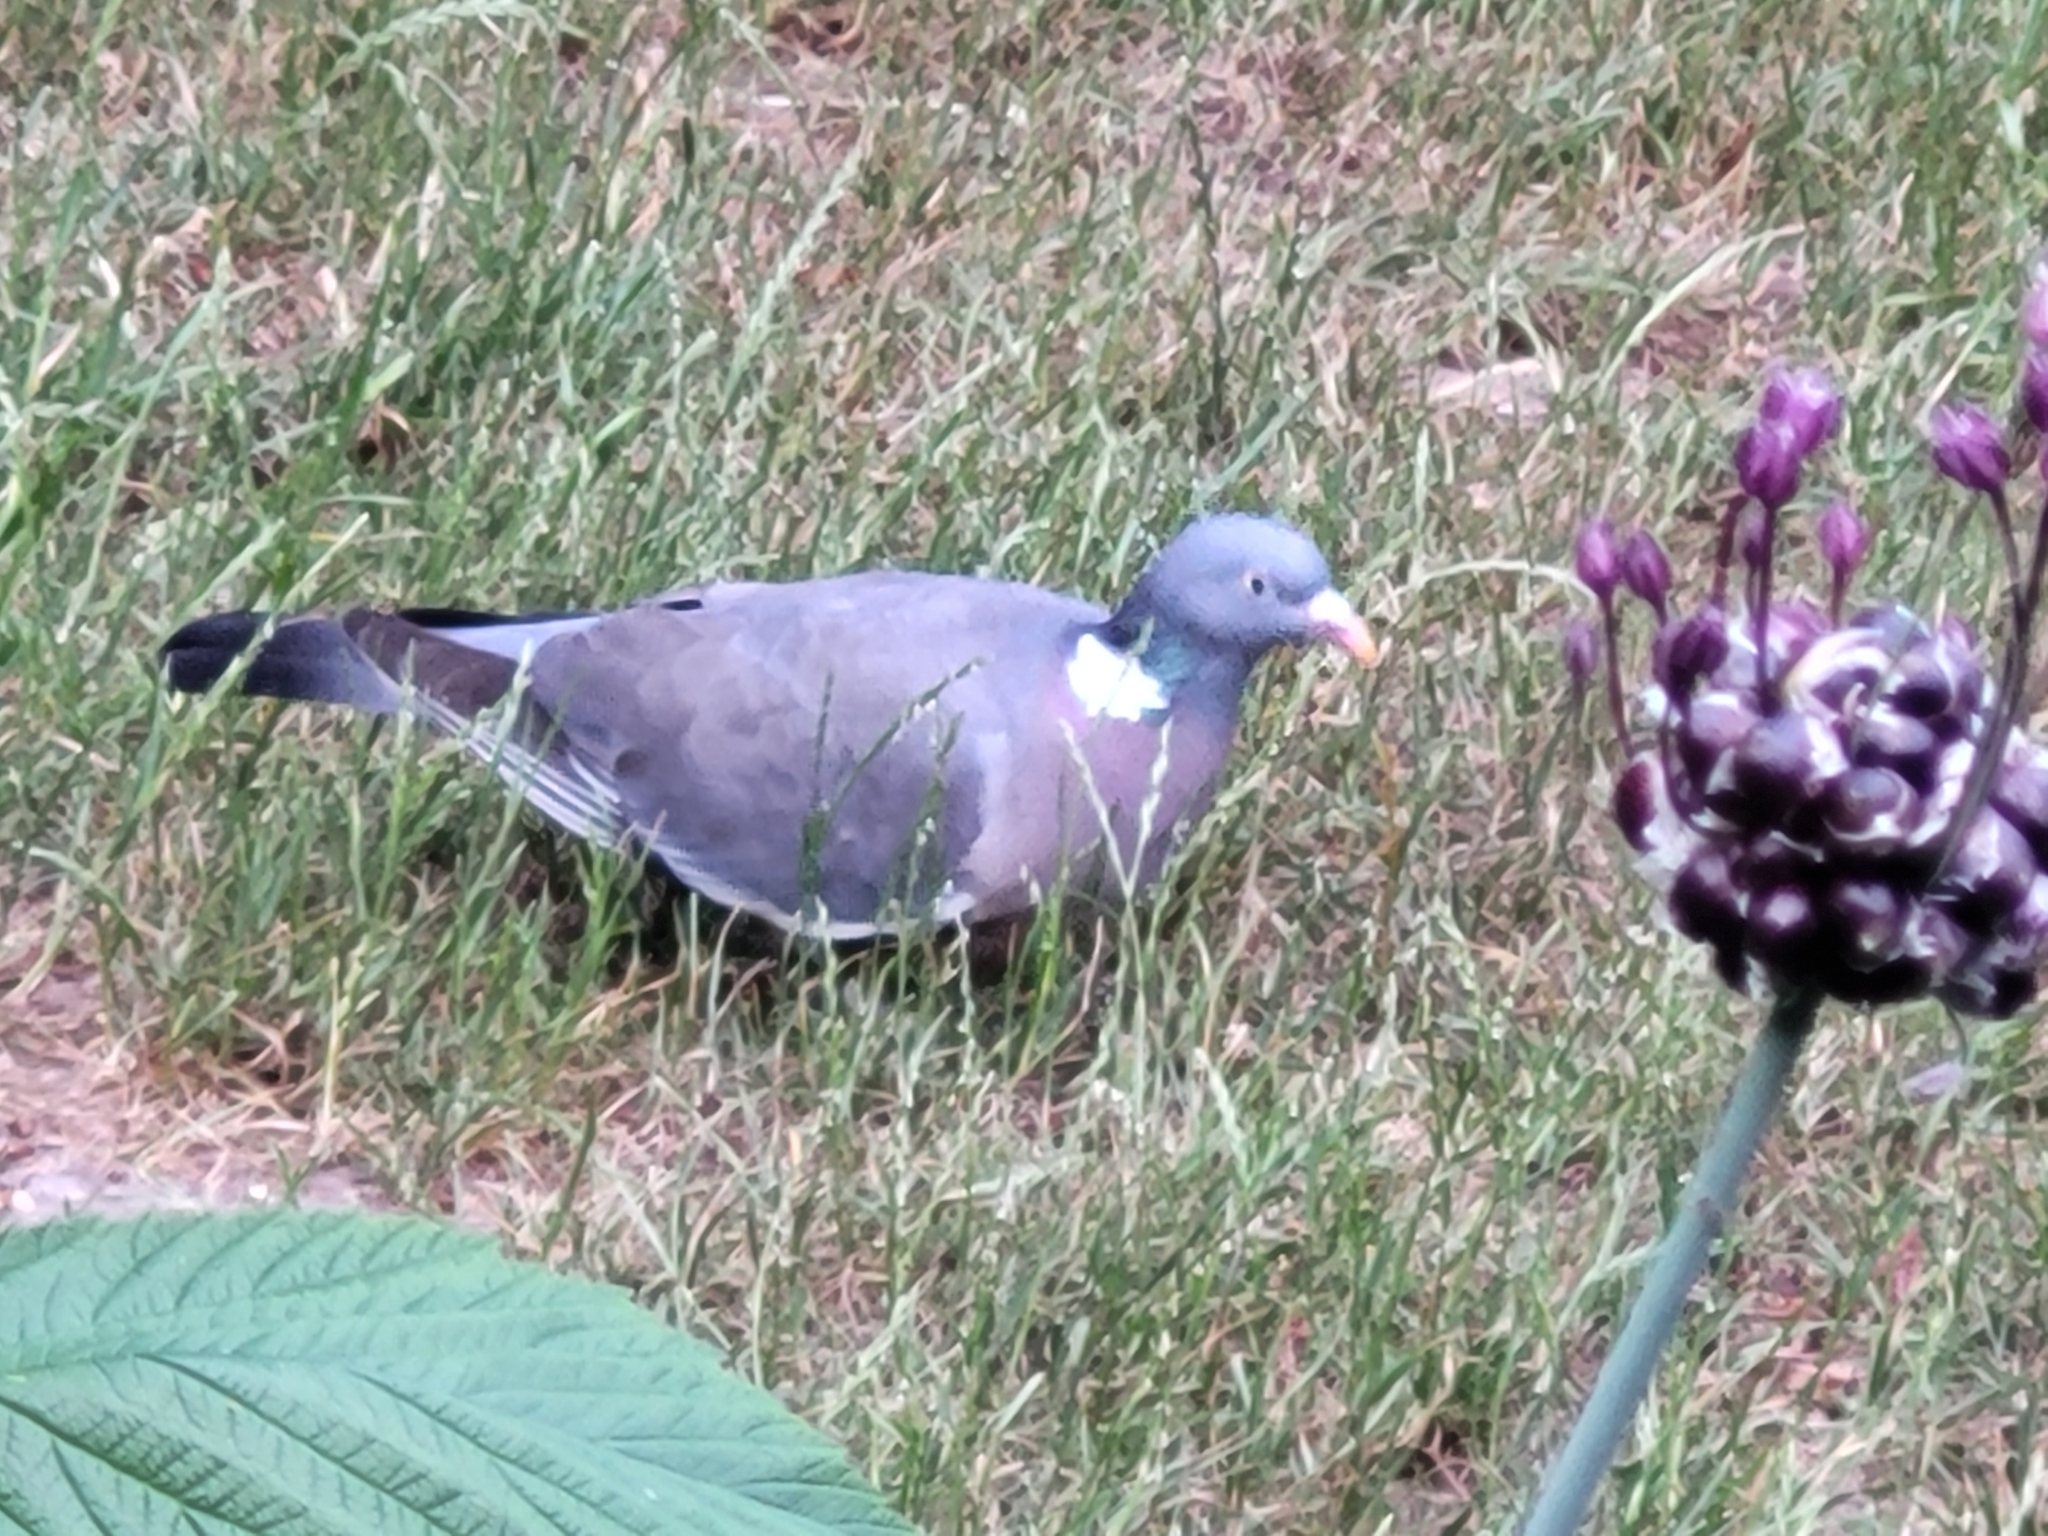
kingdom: Animalia
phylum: Chordata
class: Aves
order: Columbiformes
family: Columbidae
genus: Columba
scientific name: Columba palumbus
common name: Common wood pigeon
